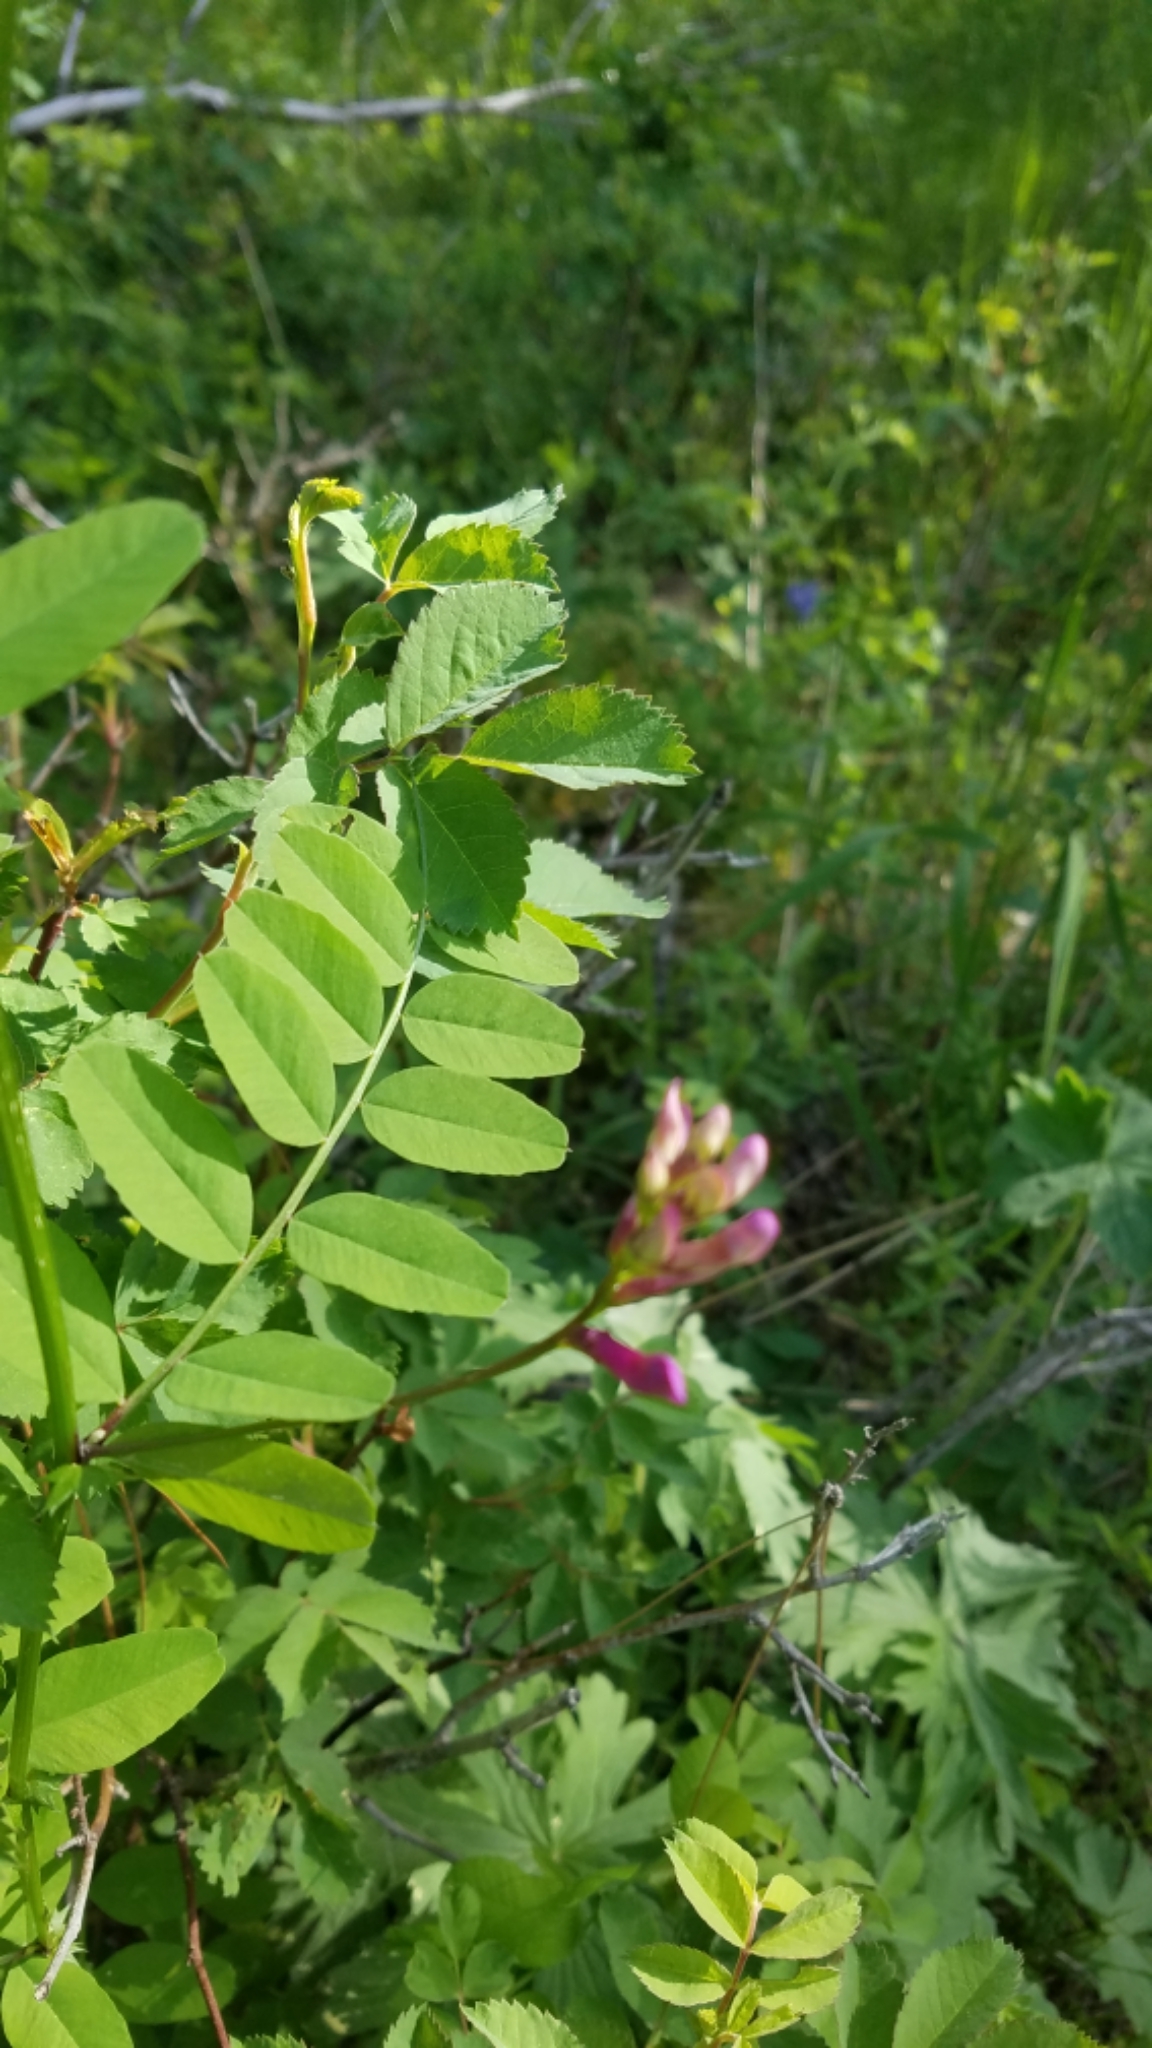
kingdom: Plantae
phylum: Tracheophyta
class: Magnoliopsida
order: Fabales
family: Fabaceae
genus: Vicia
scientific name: Vicia americana
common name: American vetch
